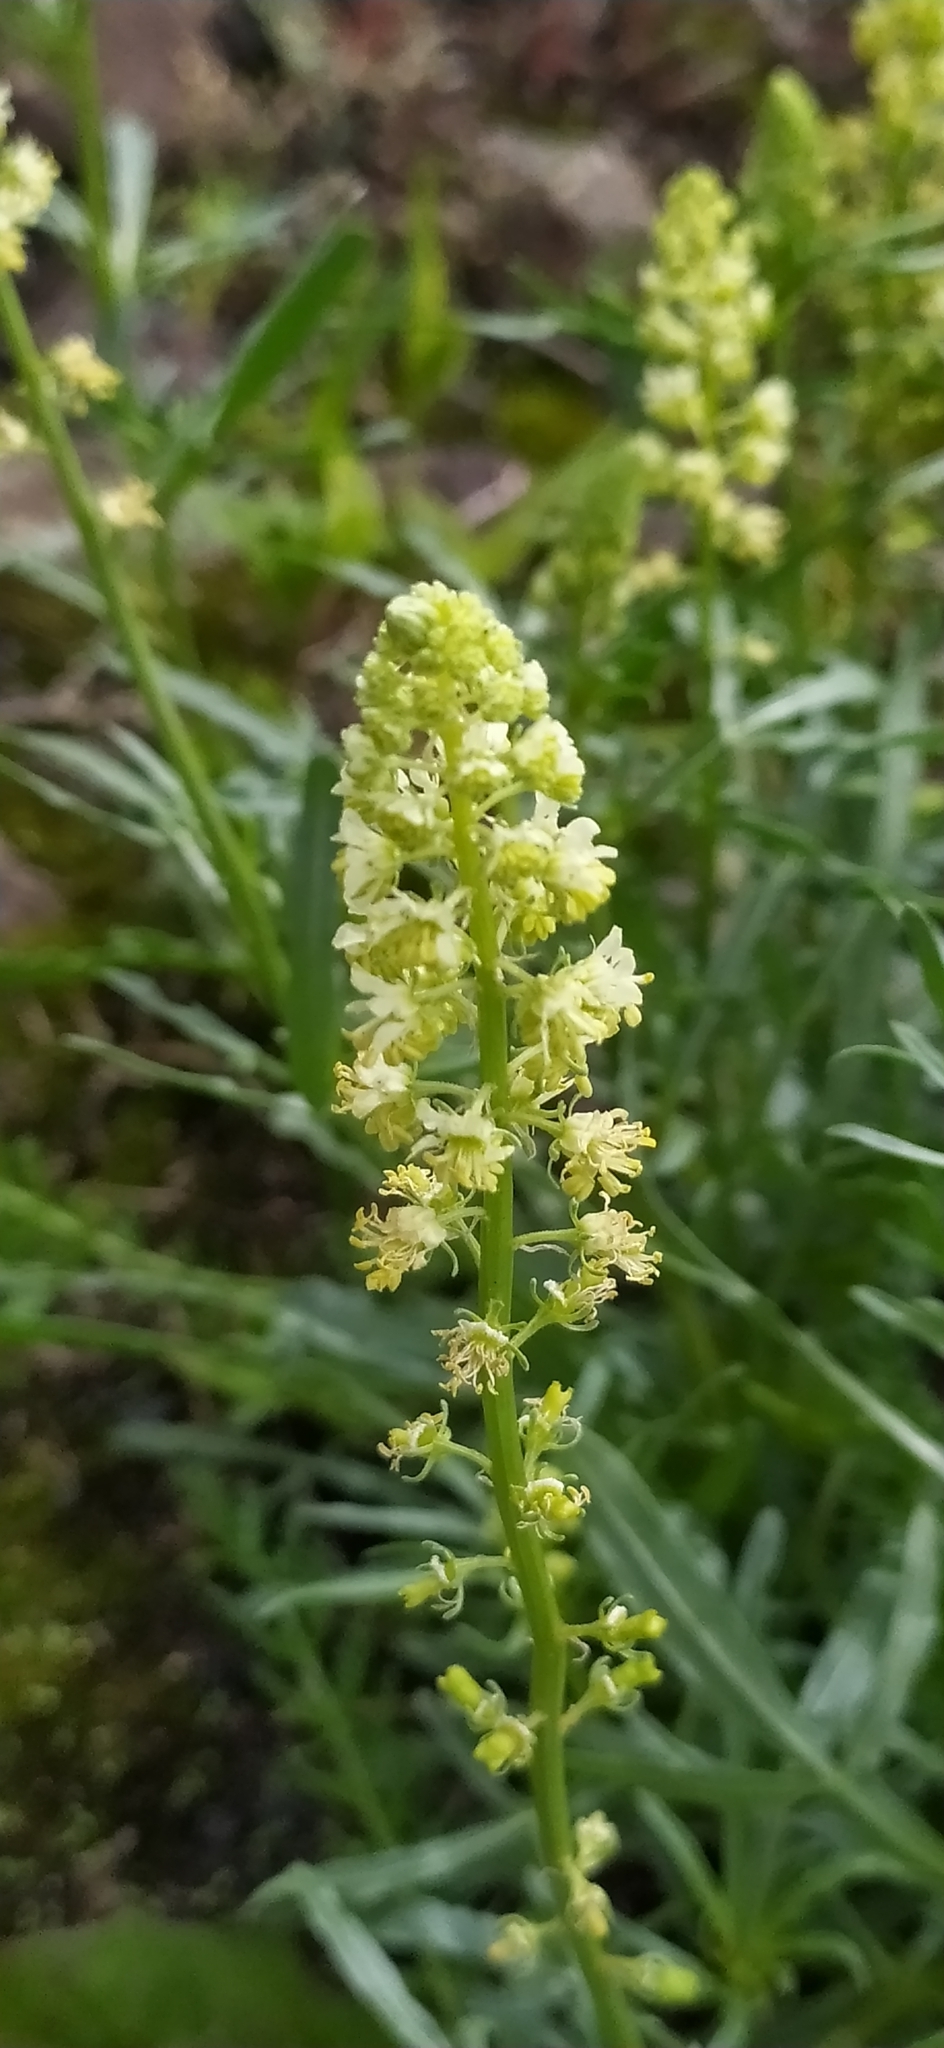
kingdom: Plantae
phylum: Tracheophyta
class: Magnoliopsida
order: Brassicales
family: Resedaceae
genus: Reseda
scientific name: Reseda lutea
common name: Wild mignonette
